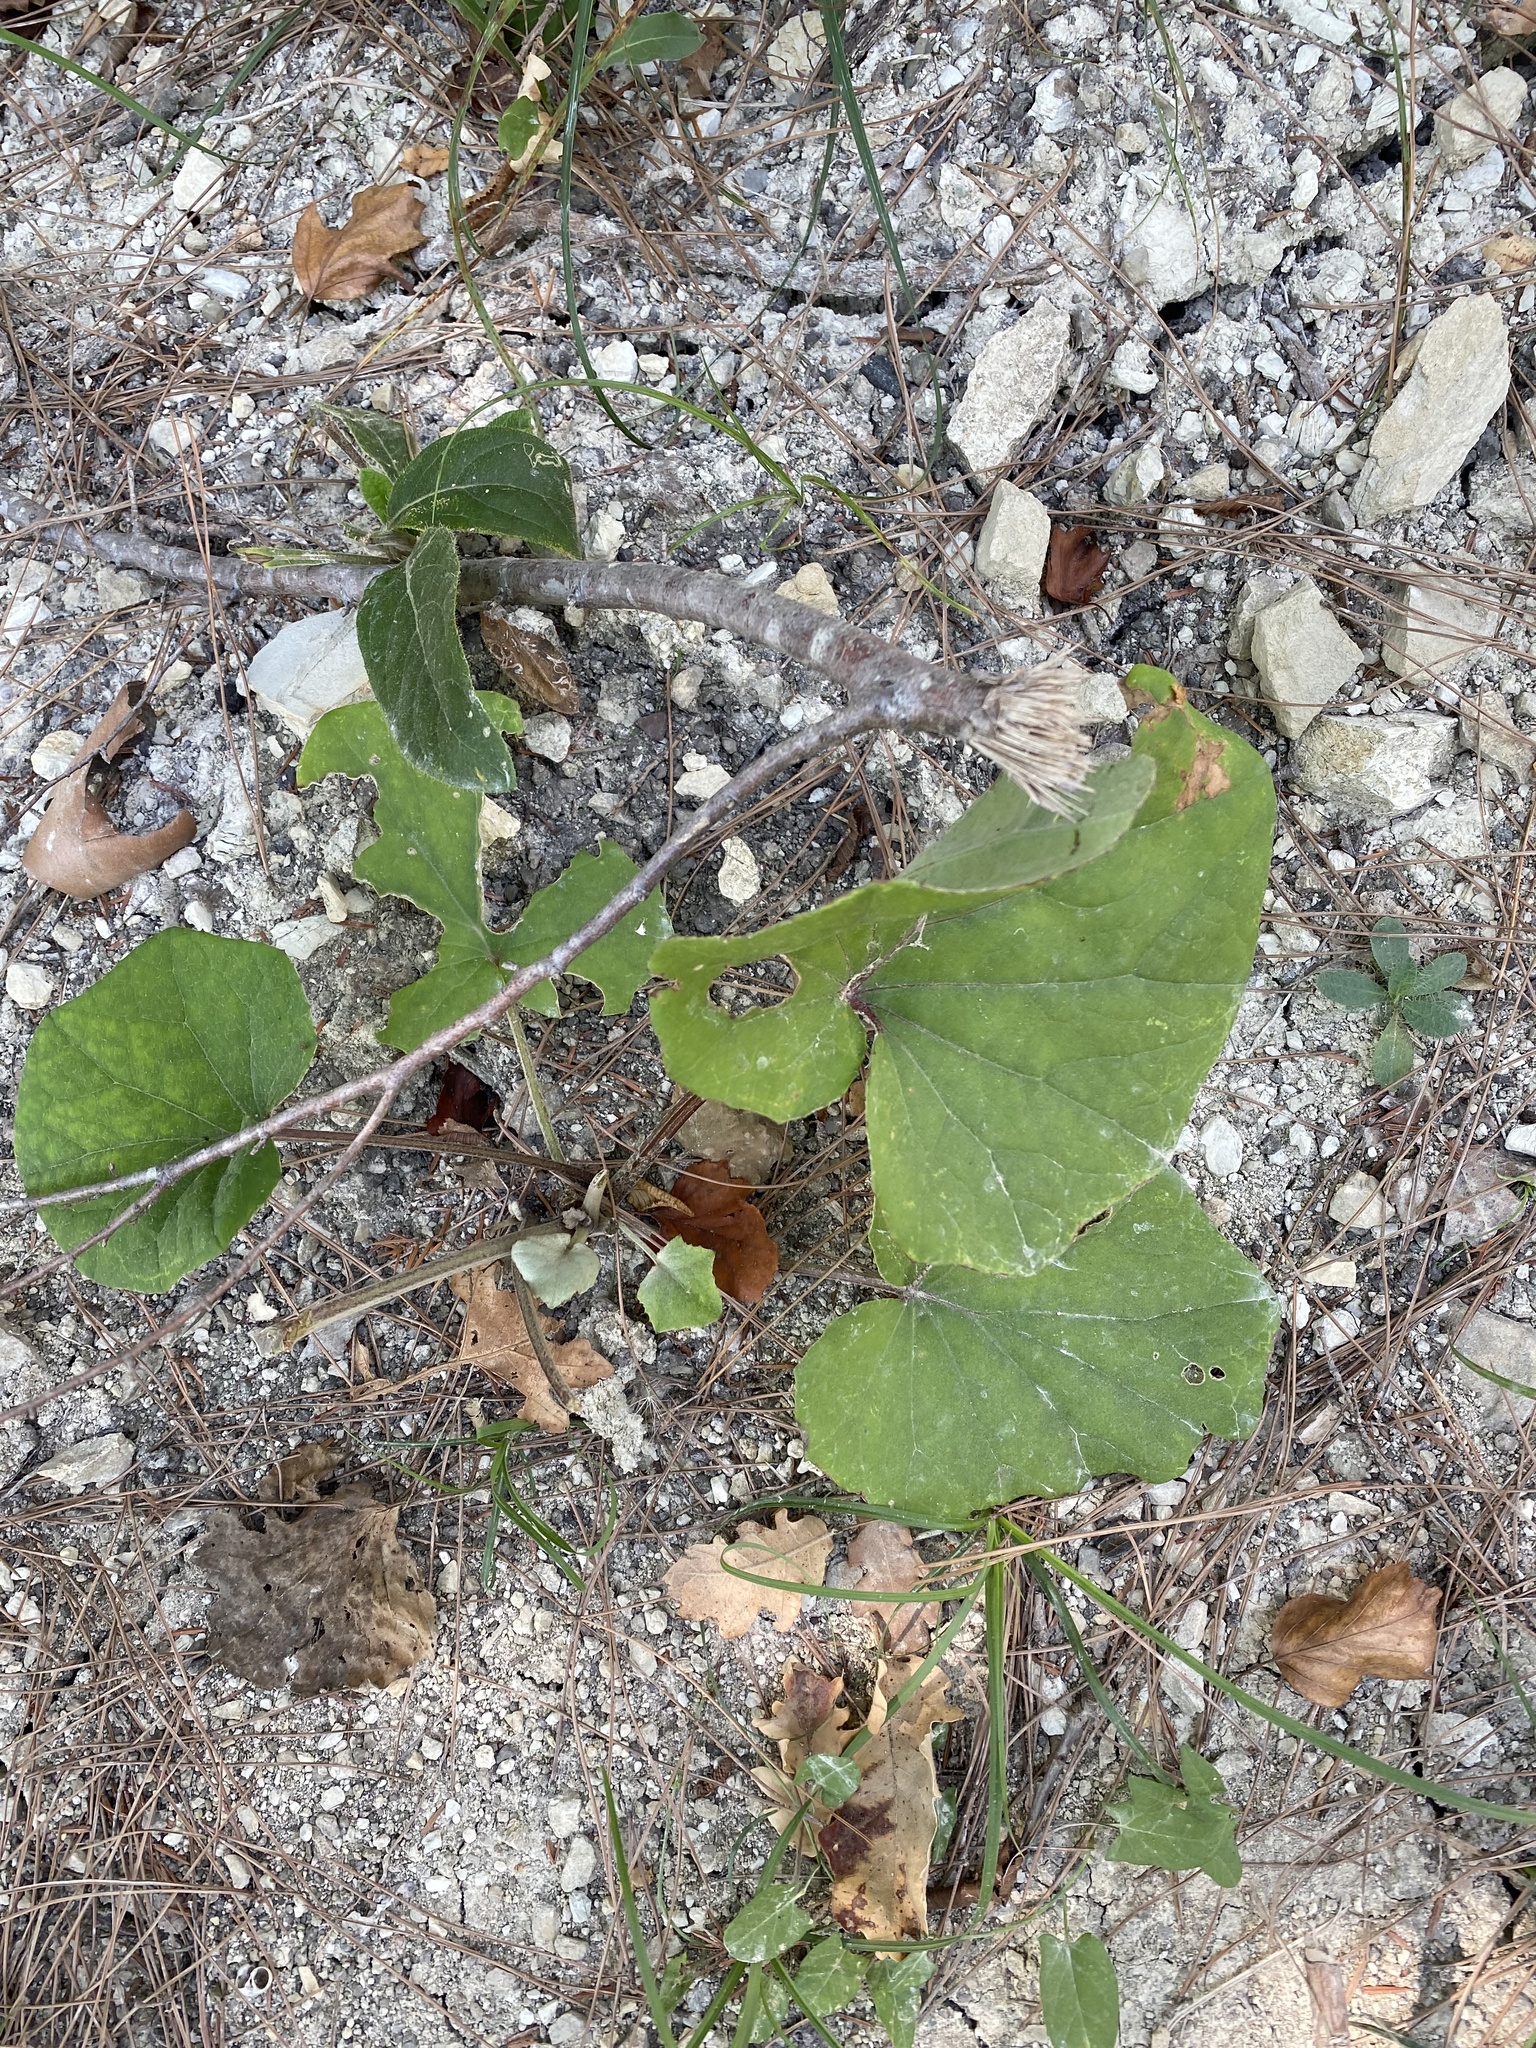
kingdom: Plantae
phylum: Tracheophyta
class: Magnoliopsida
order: Asterales
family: Asteraceae
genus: Tussilago
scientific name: Tussilago farfara
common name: Coltsfoot
